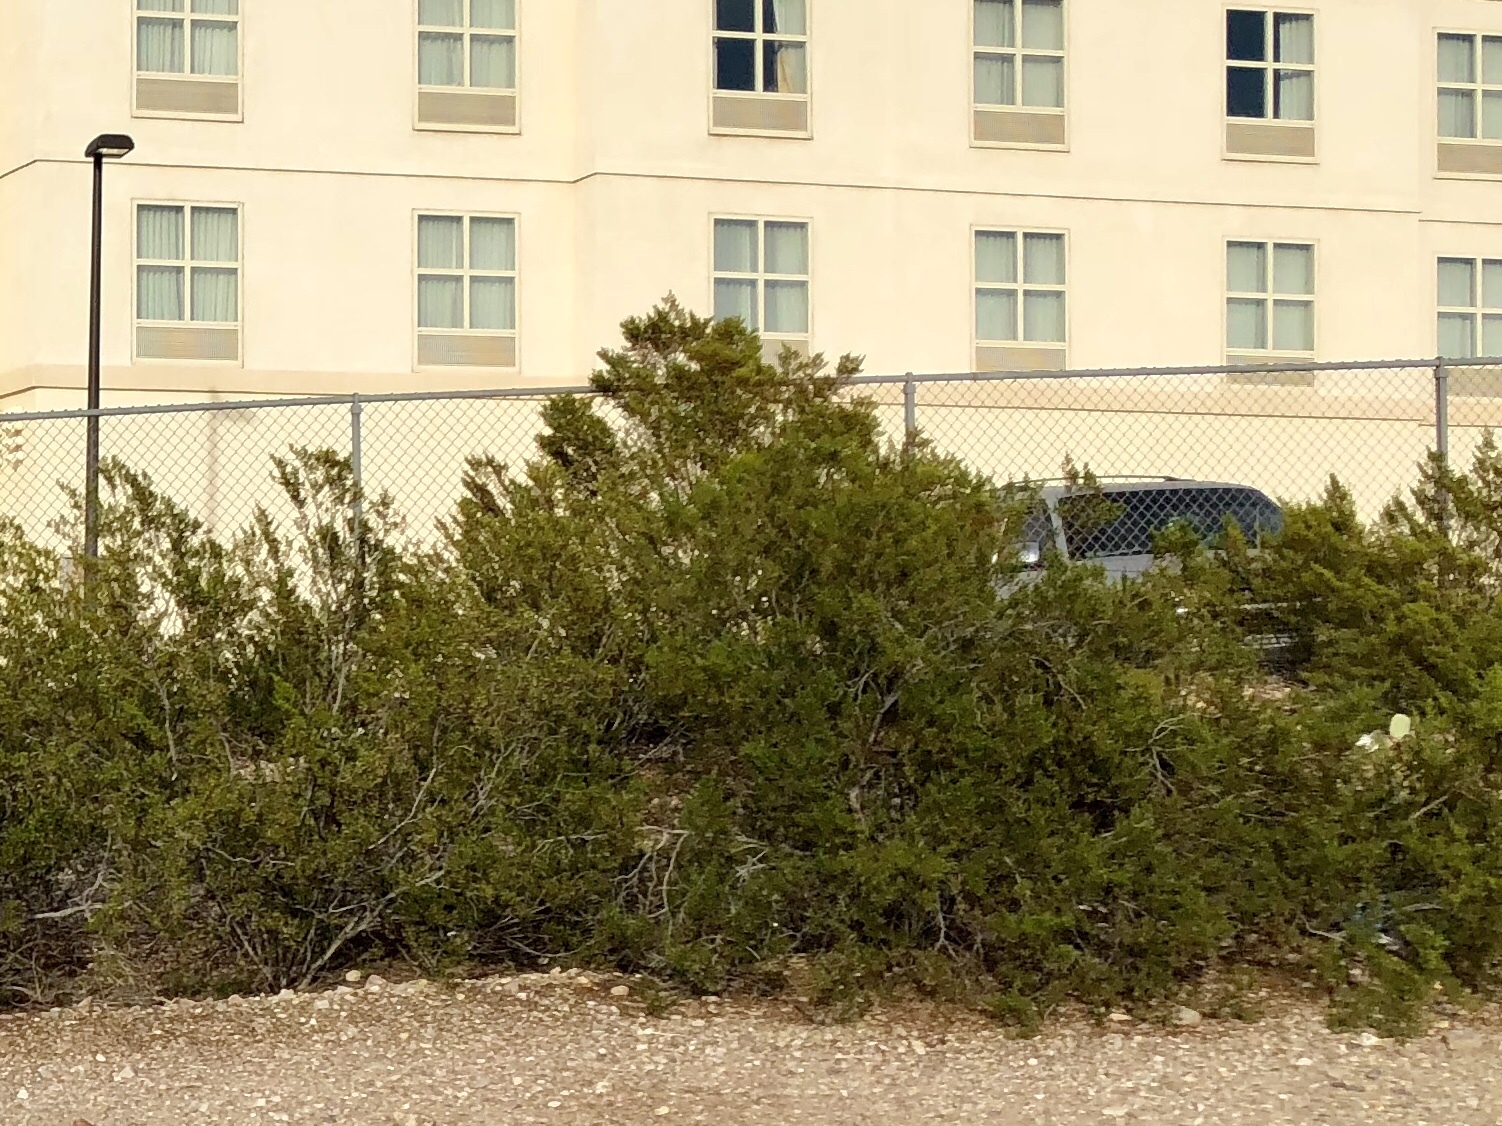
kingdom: Plantae
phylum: Tracheophyta
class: Magnoliopsida
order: Zygophyllales
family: Zygophyllaceae
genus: Larrea
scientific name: Larrea tridentata
